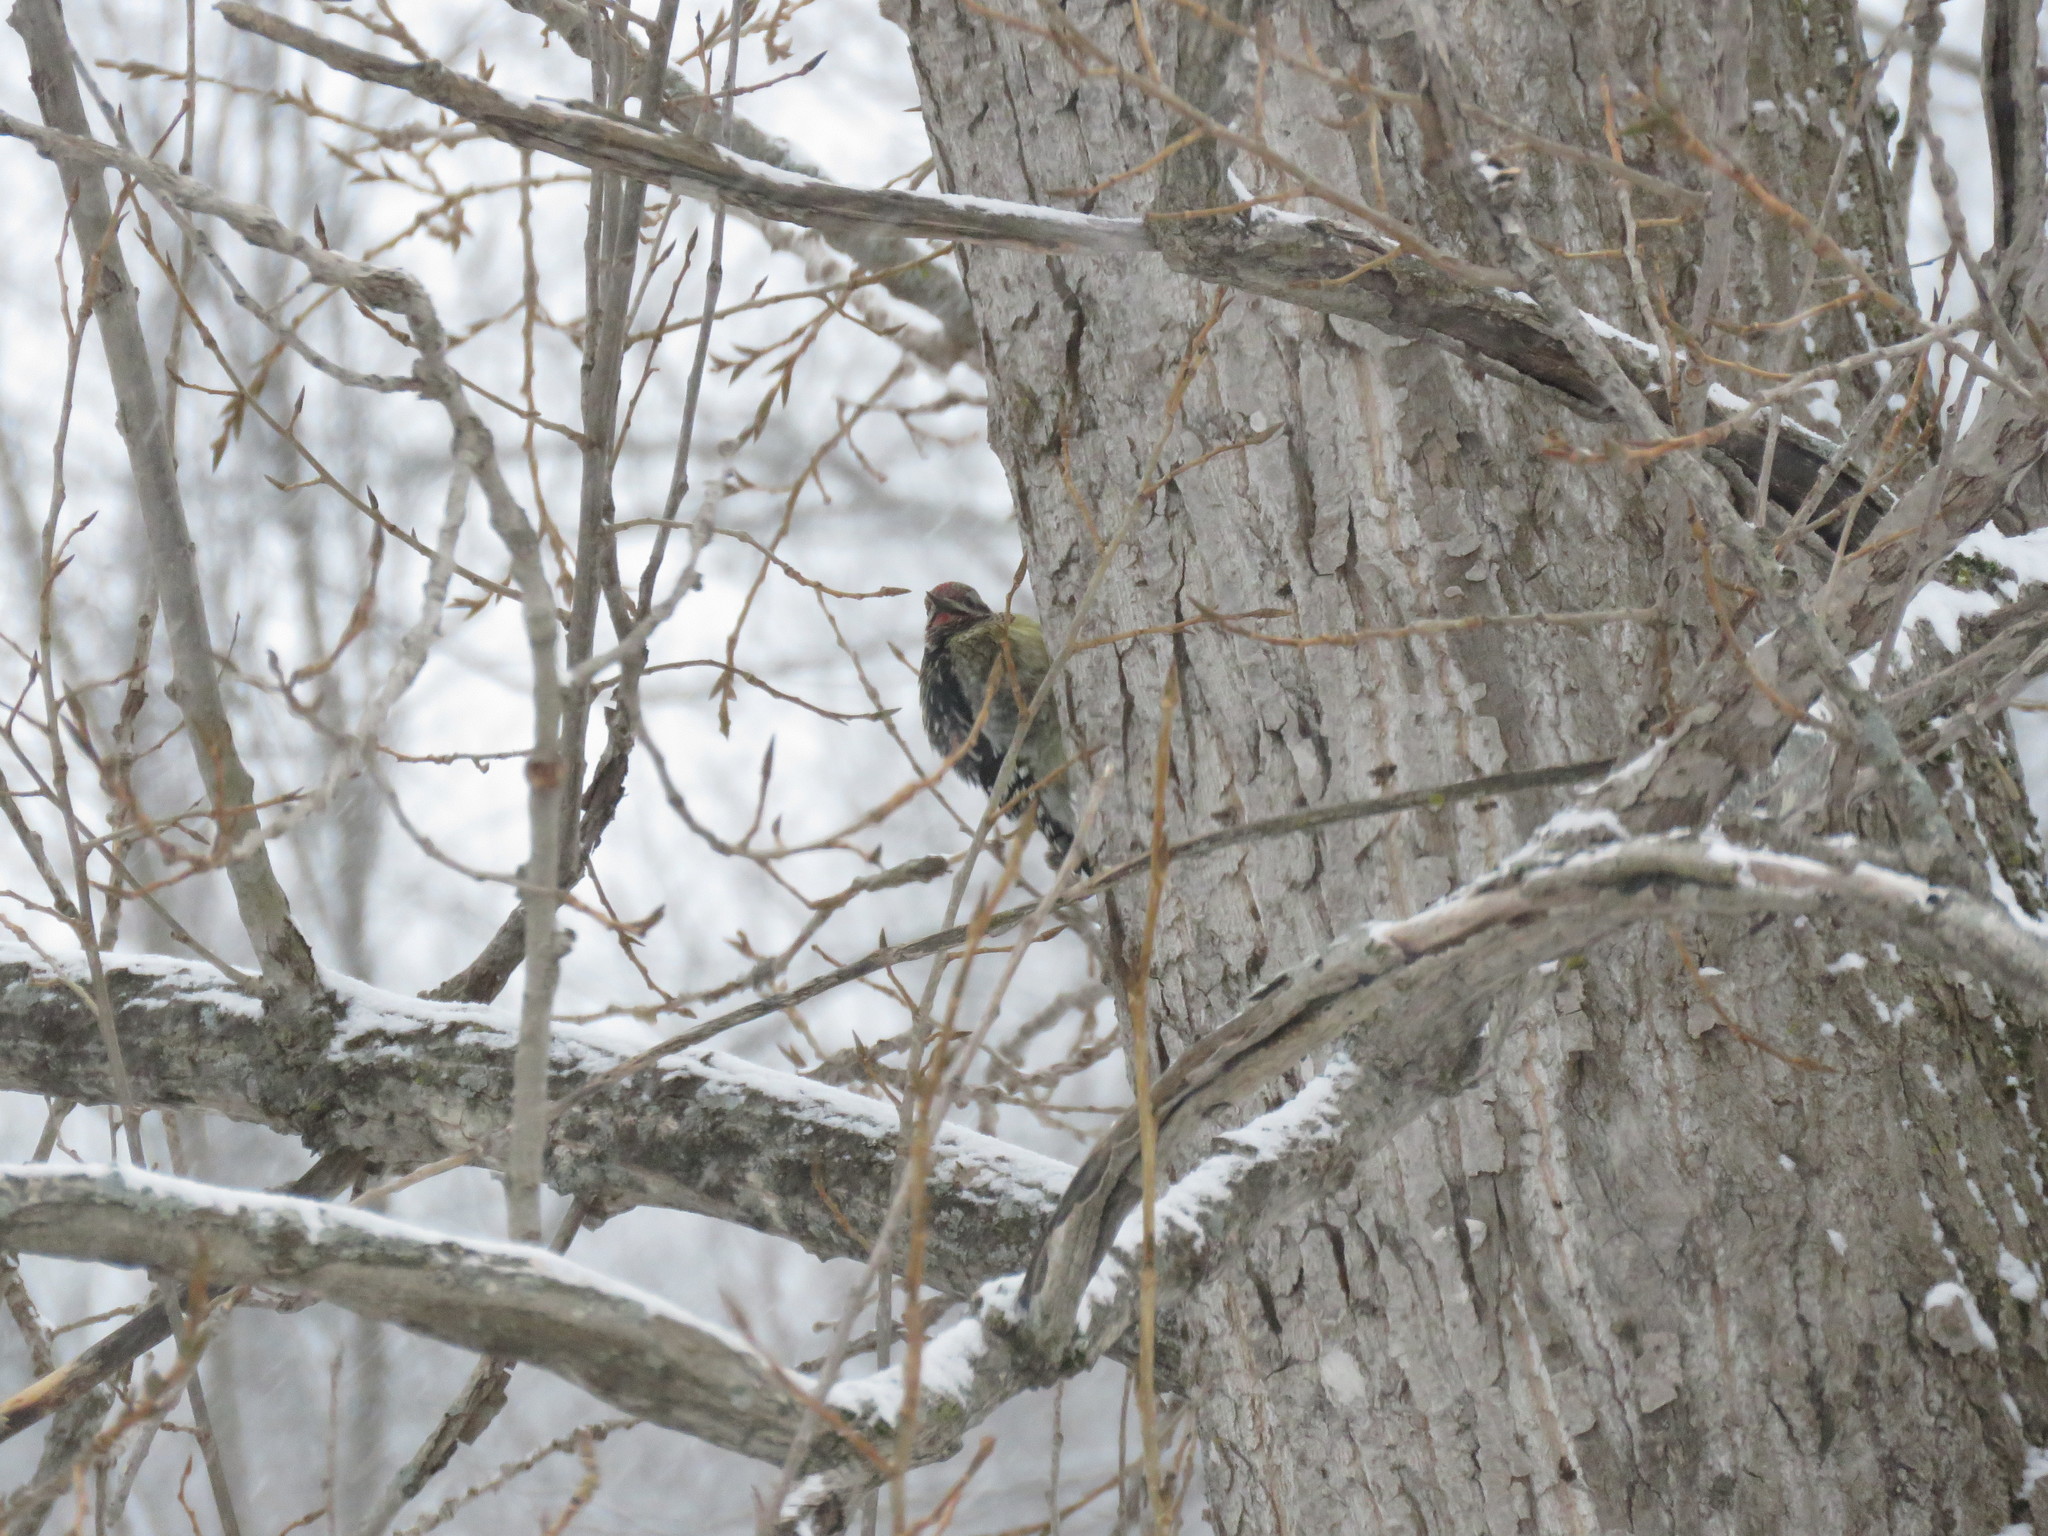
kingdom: Animalia
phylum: Chordata
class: Aves
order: Piciformes
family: Picidae
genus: Sphyrapicus
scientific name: Sphyrapicus varius
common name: Yellow-bellied sapsucker
